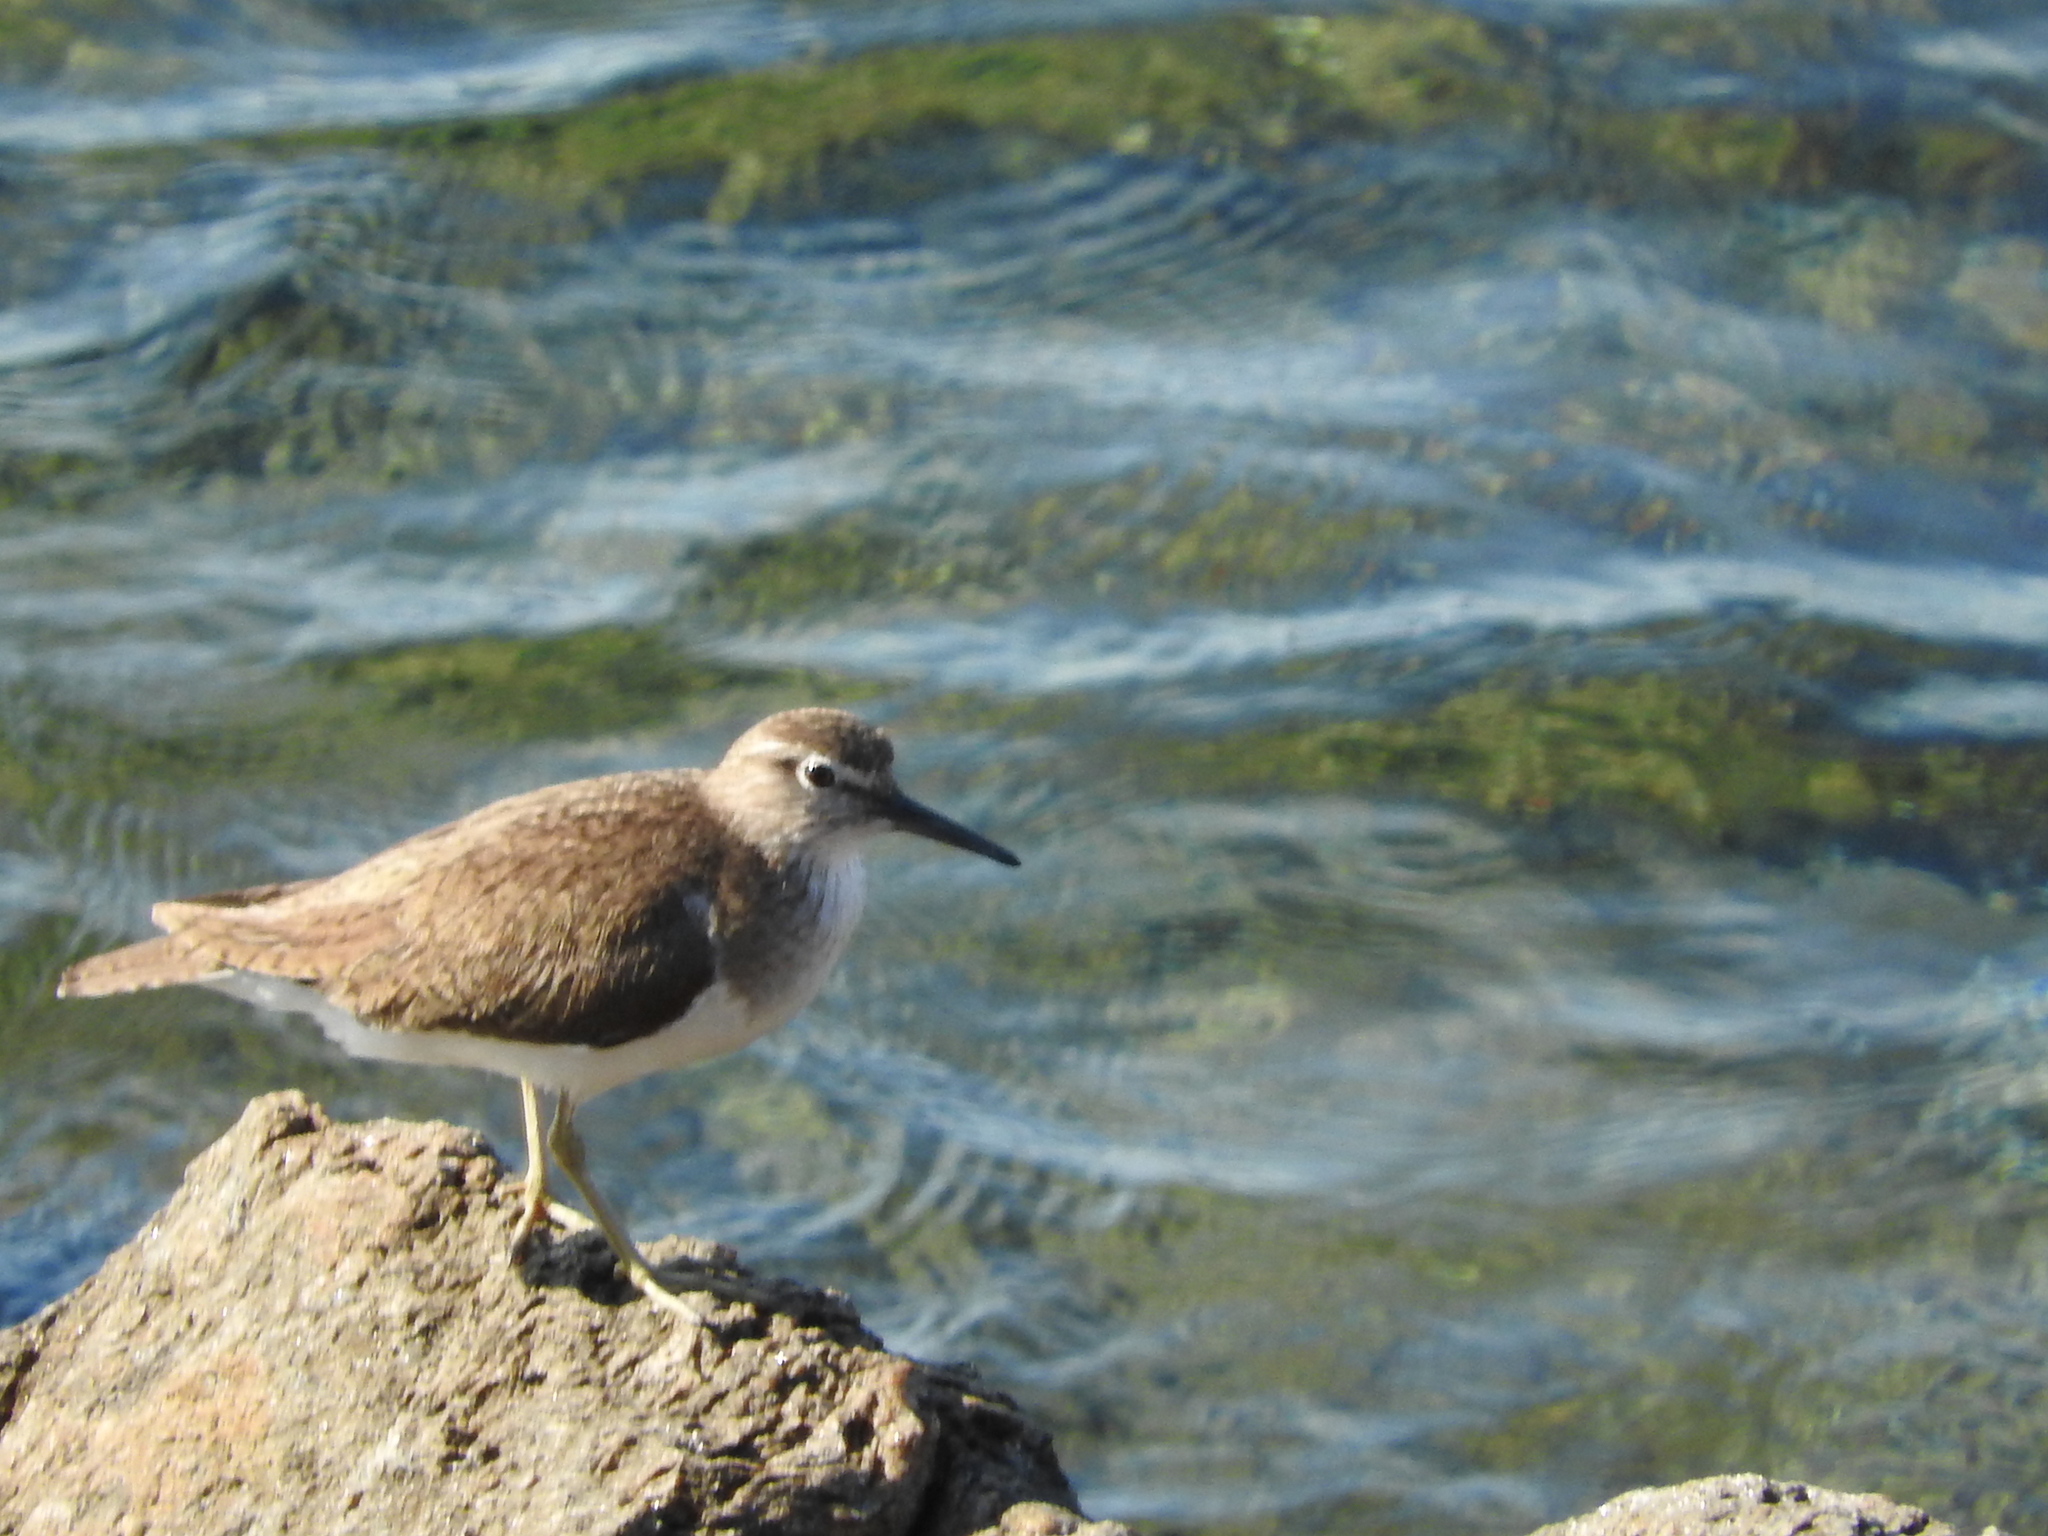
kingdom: Animalia
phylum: Chordata
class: Aves
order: Charadriiformes
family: Scolopacidae
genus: Actitis
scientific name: Actitis hypoleucos
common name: Common sandpiper
